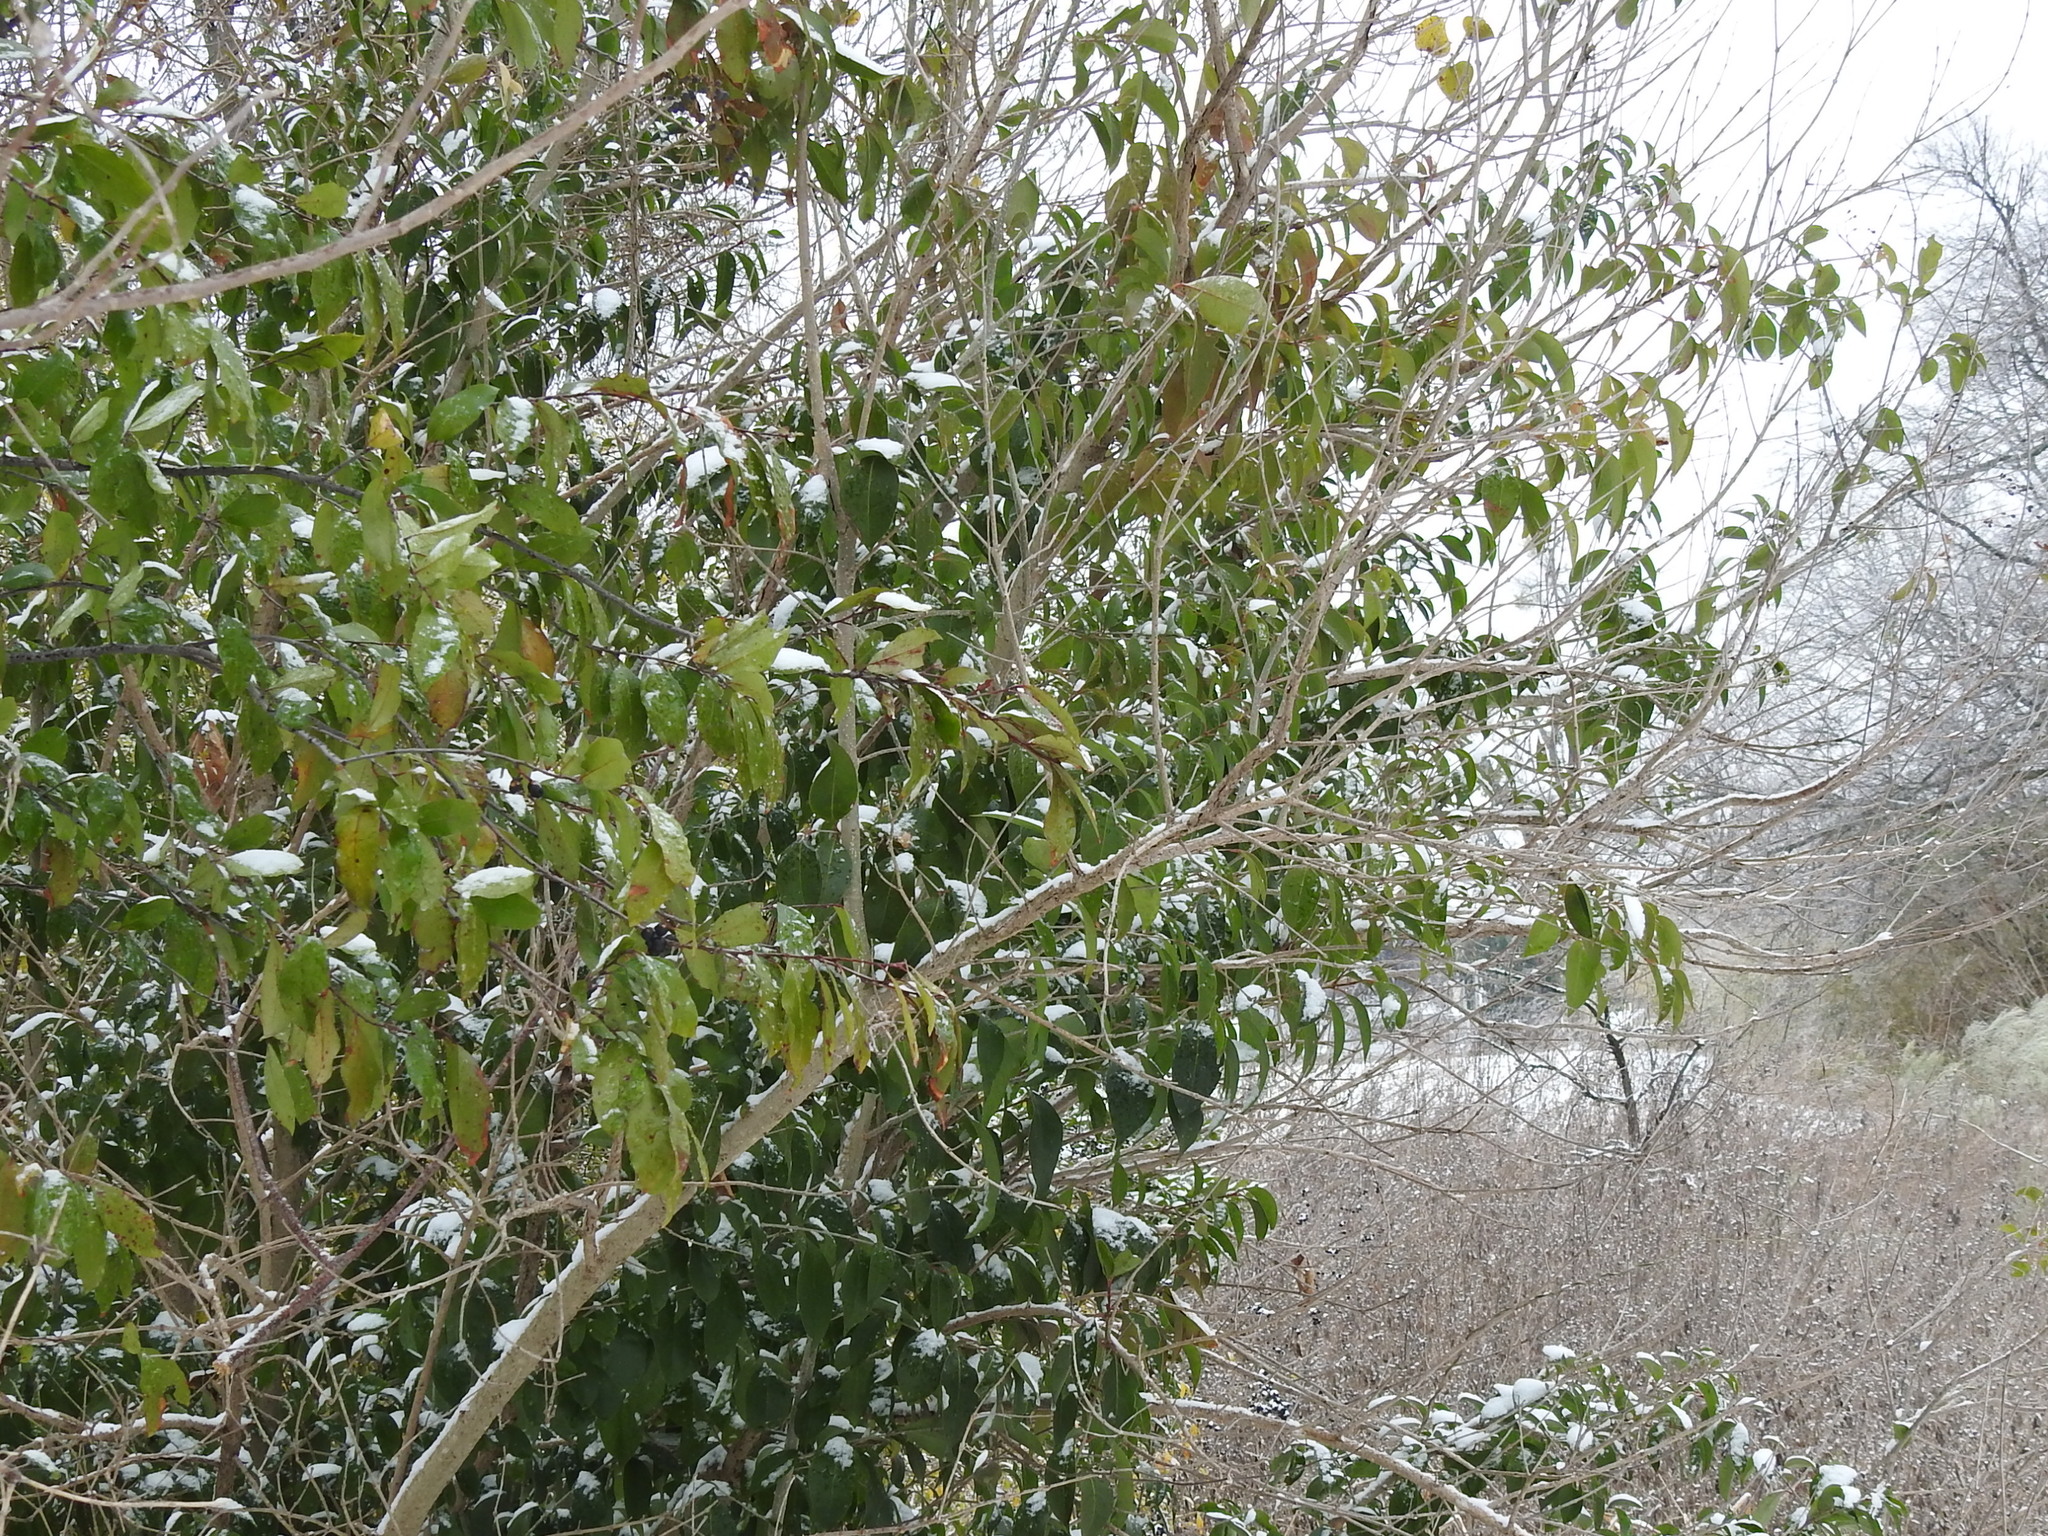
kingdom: Plantae
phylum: Tracheophyta
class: Magnoliopsida
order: Lamiales
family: Oleaceae
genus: Ligustrum
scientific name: Ligustrum lucidum
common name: Glossy privet
